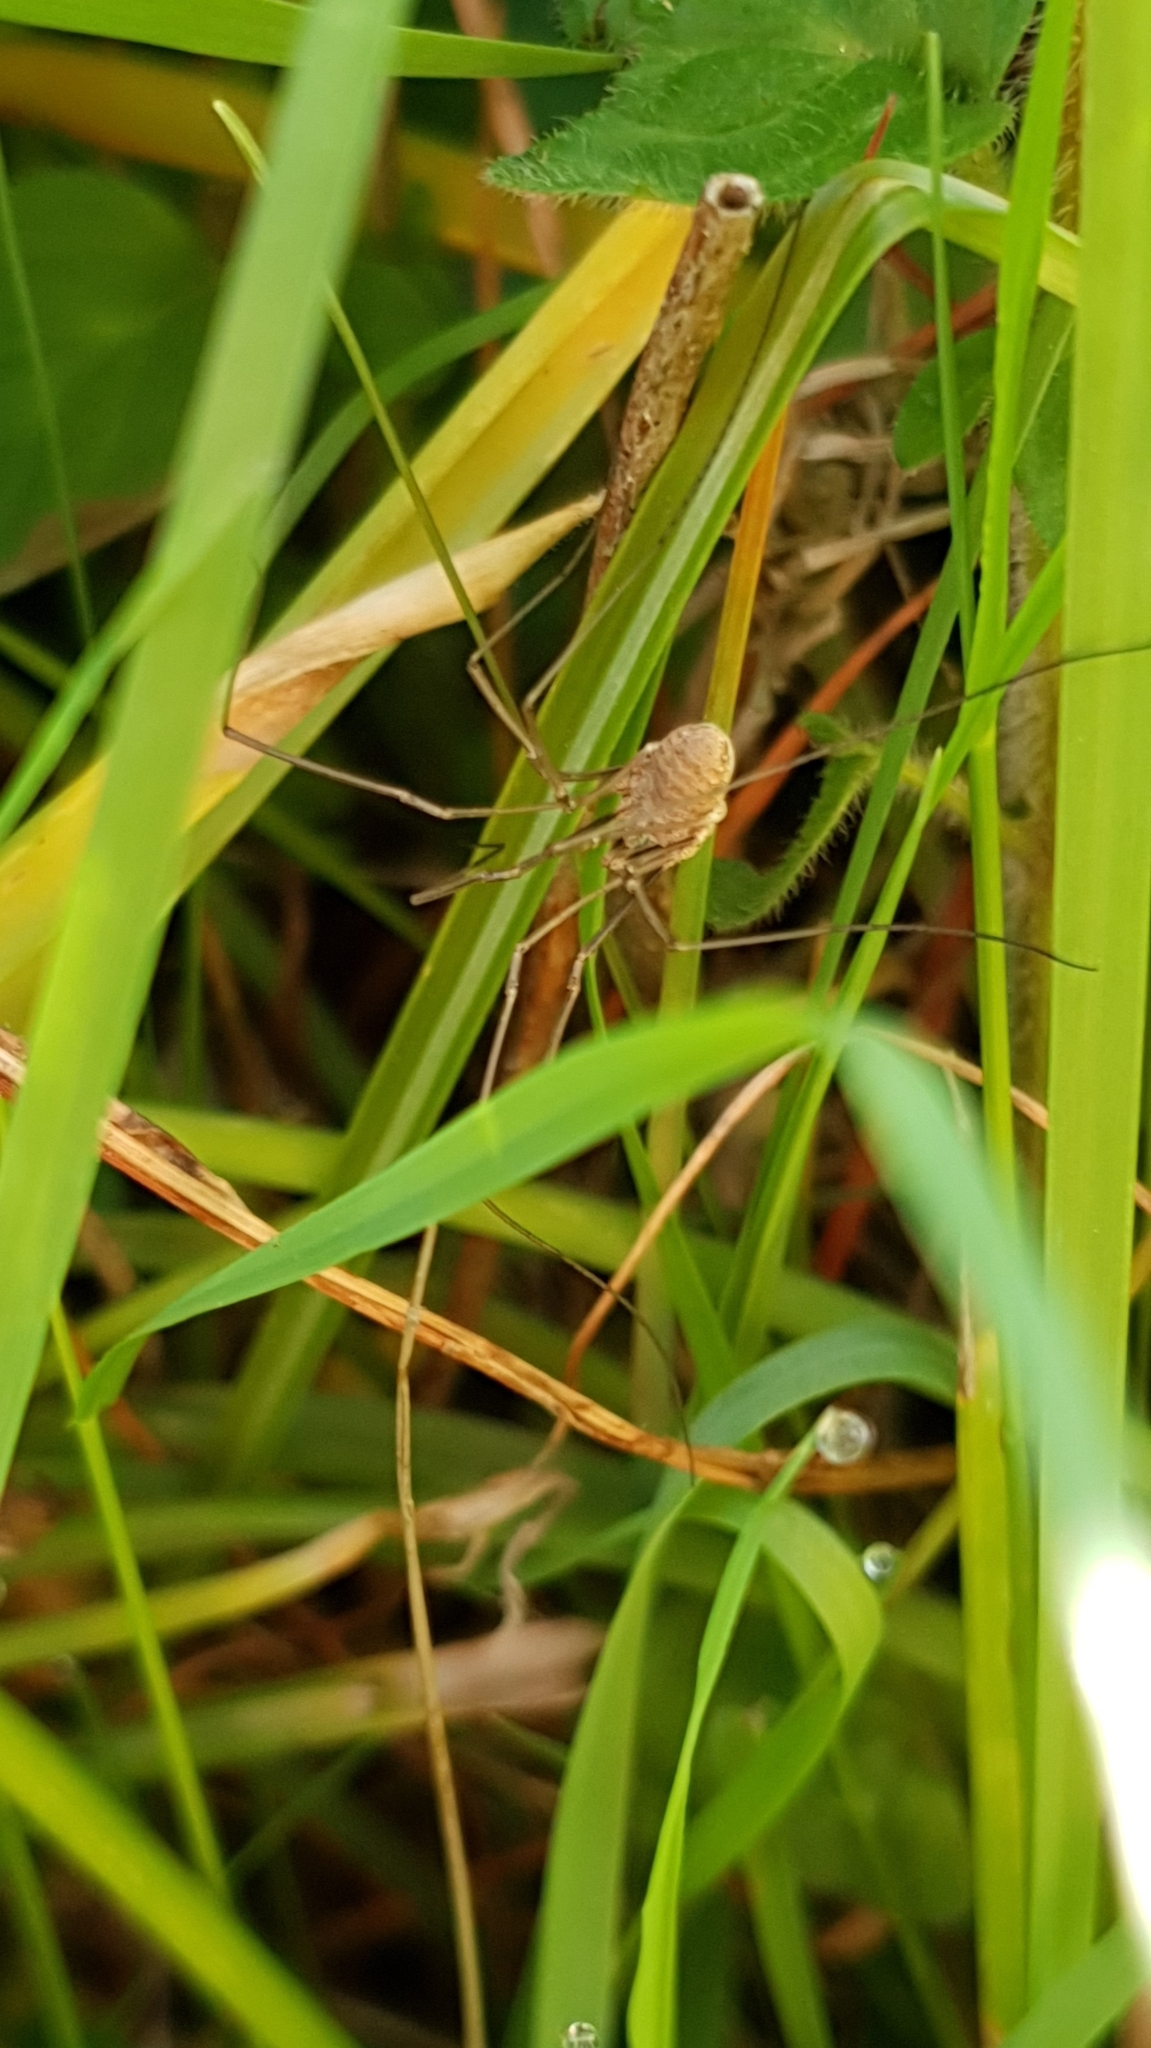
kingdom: Animalia
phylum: Arthropoda
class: Arachnida
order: Opiliones
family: Phalangiidae
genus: Phalangium
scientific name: Phalangium opilio
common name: Daddy longleg
